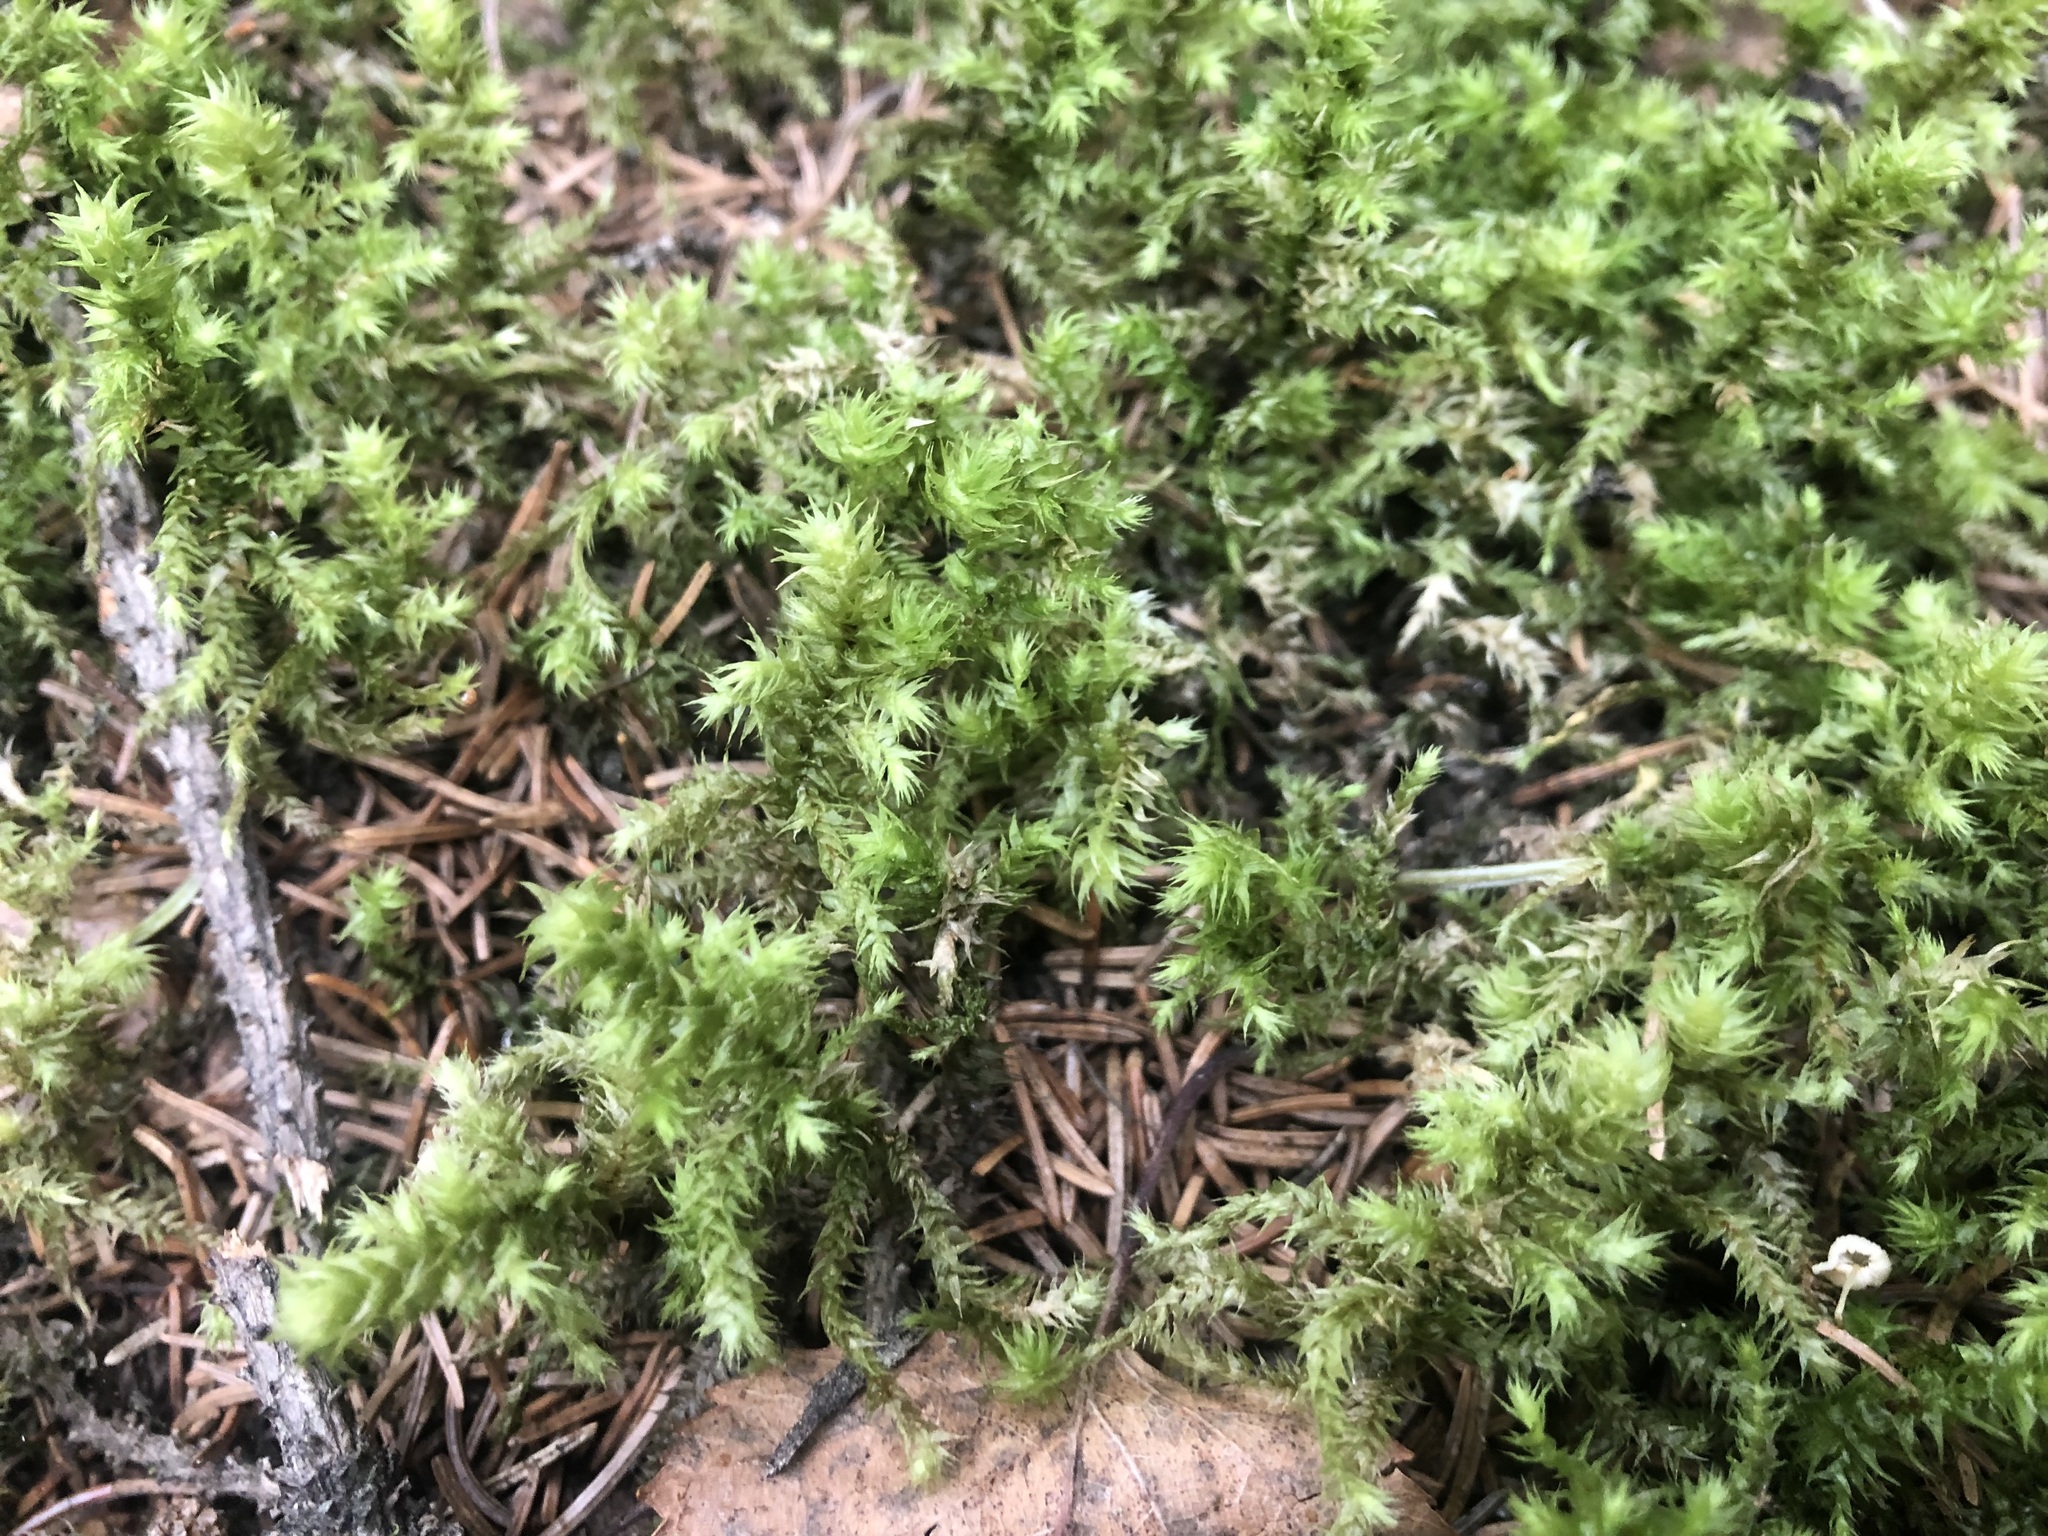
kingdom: Plantae
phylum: Bryophyta
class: Bryopsida
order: Hypnales
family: Hylocomiaceae
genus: Rhytidiadelphus
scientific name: Rhytidiadelphus squarrosus
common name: Springy turf-moss
